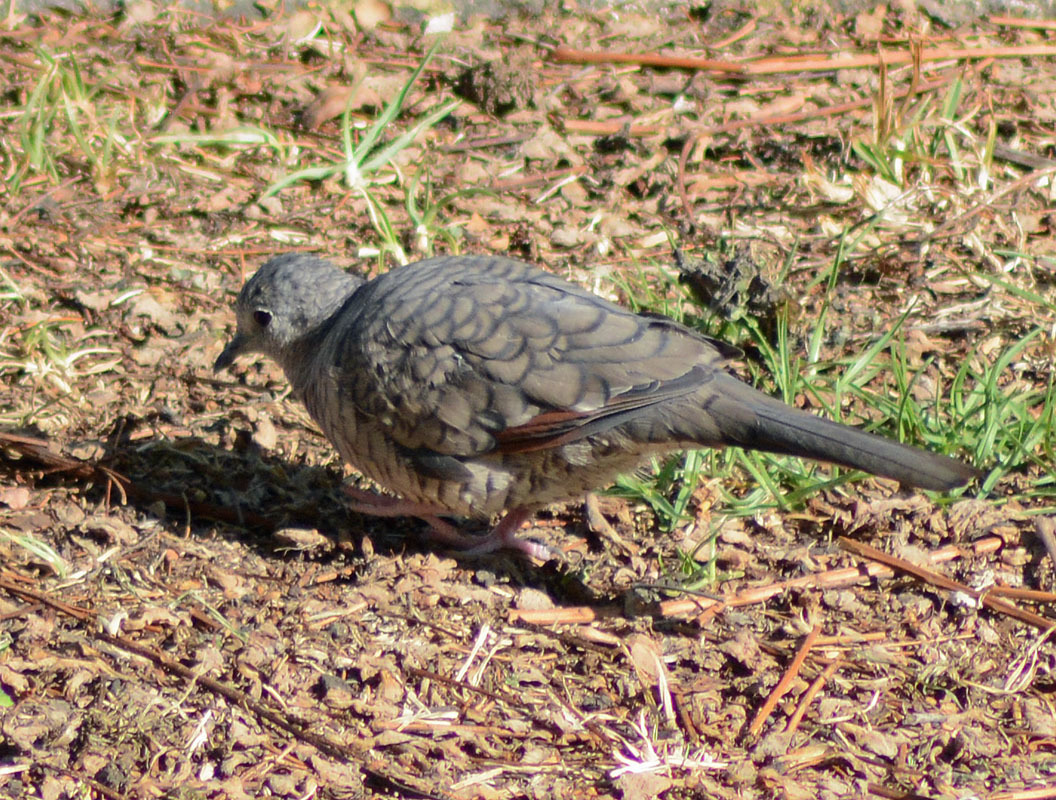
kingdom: Animalia
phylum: Chordata
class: Aves
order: Columbiformes
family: Columbidae
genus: Columbina
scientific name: Columbina inca
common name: Inca dove
